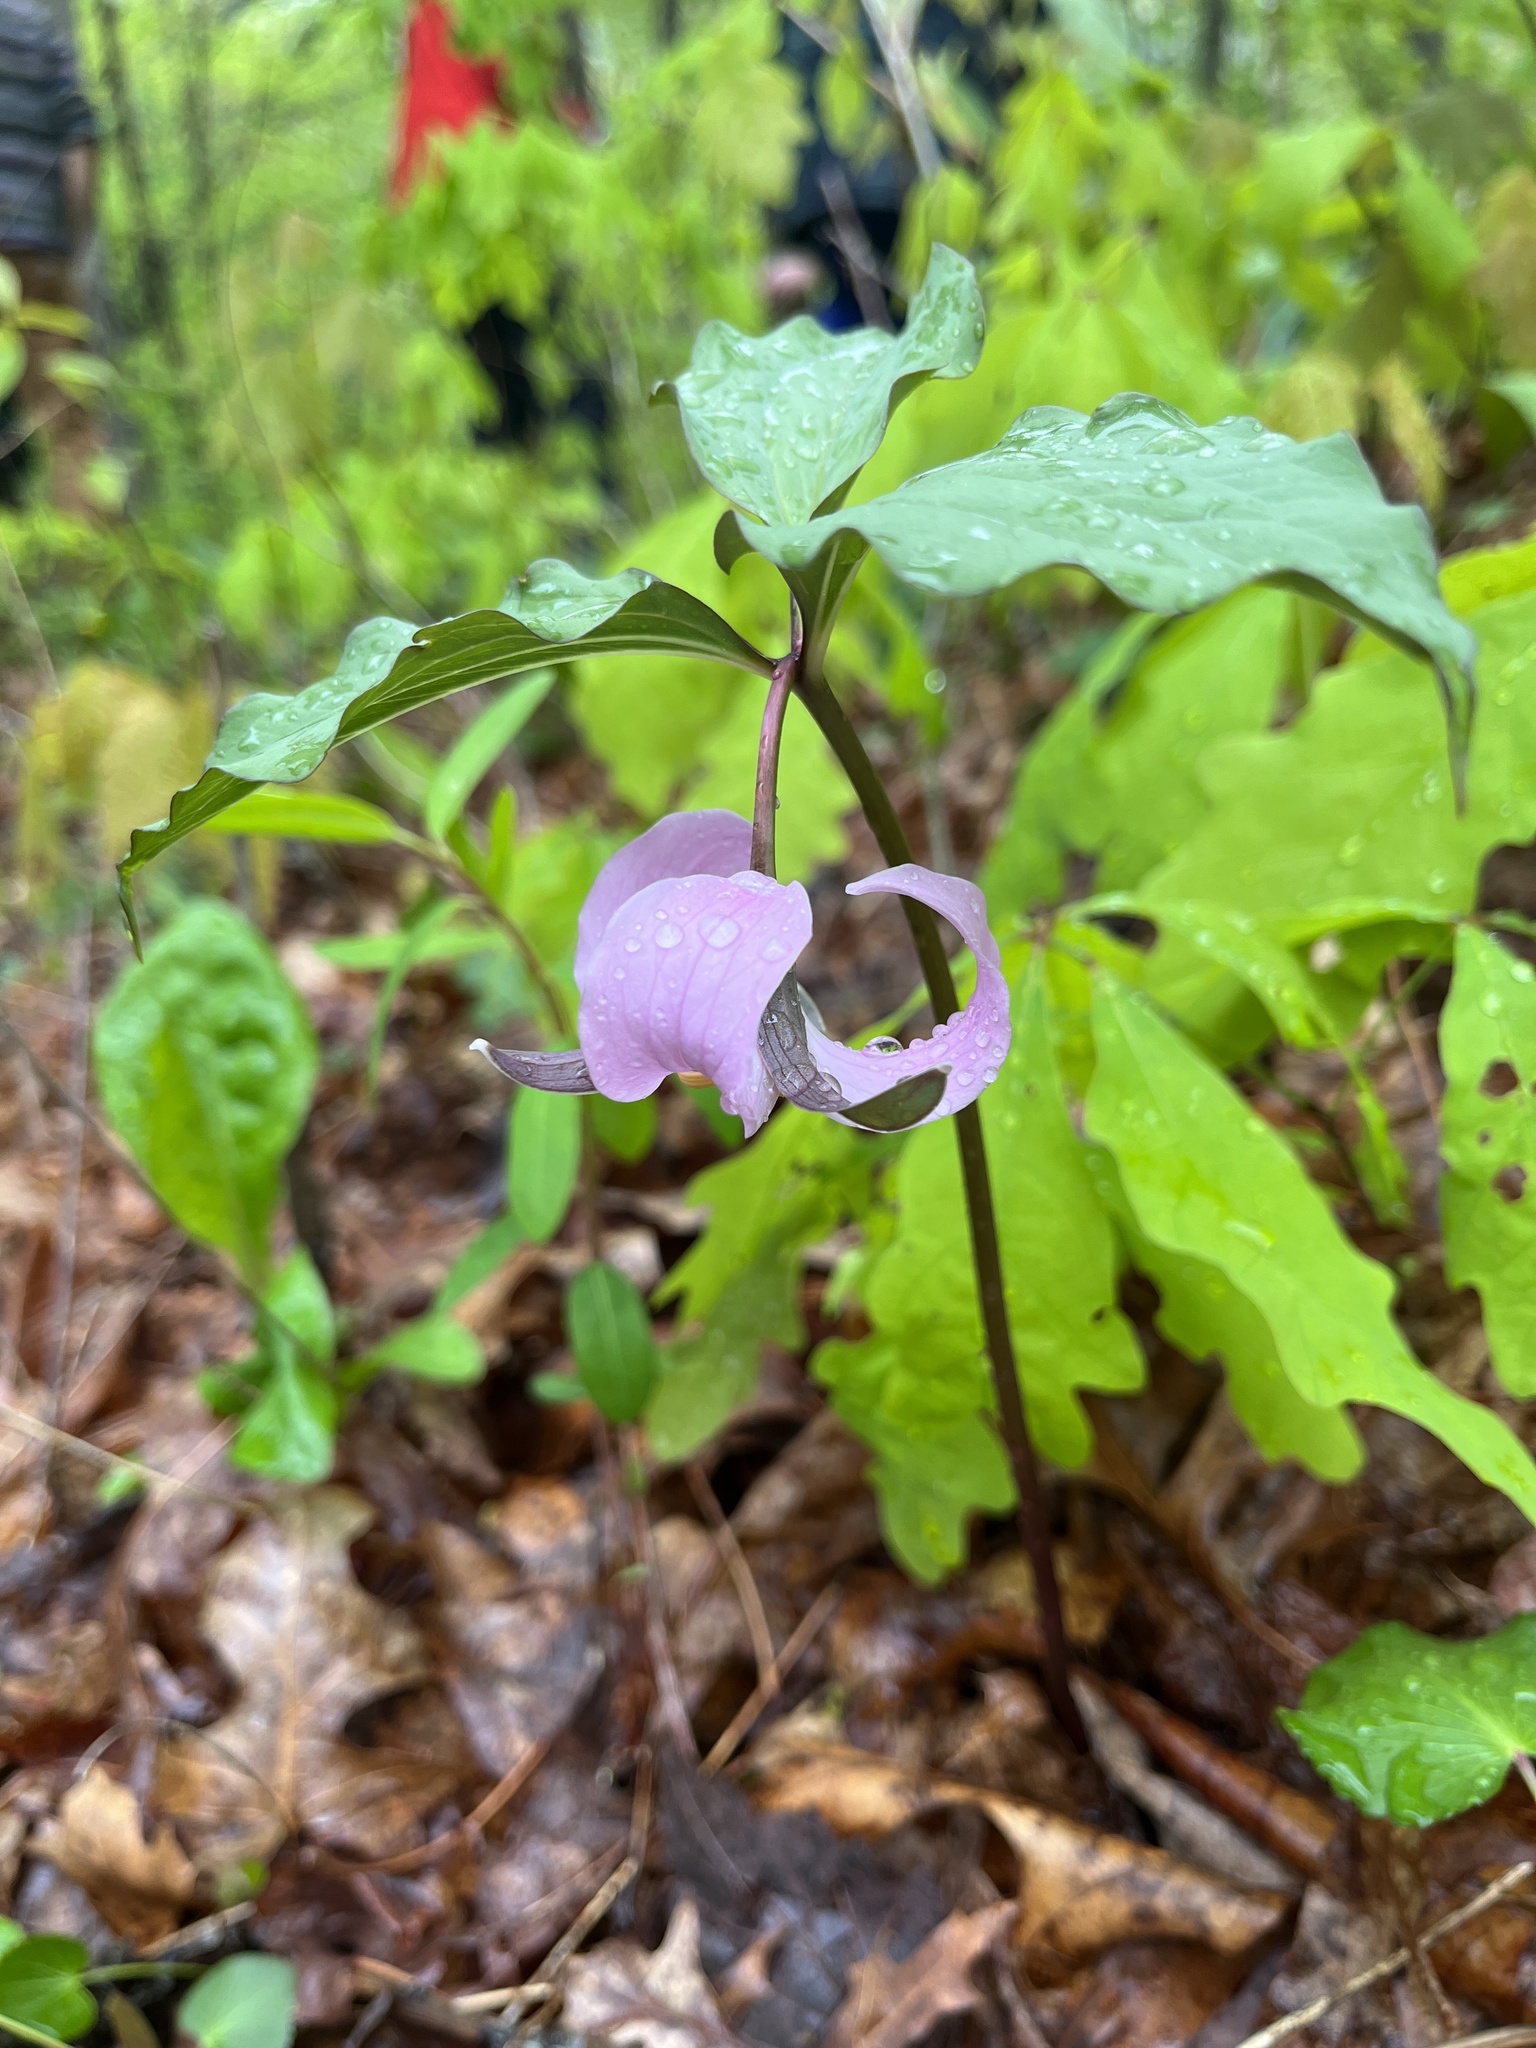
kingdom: Plantae
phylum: Tracheophyta
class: Liliopsida
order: Liliales
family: Melanthiaceae
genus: Trillium
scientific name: Trillium catesbaei
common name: Bashful trillium
